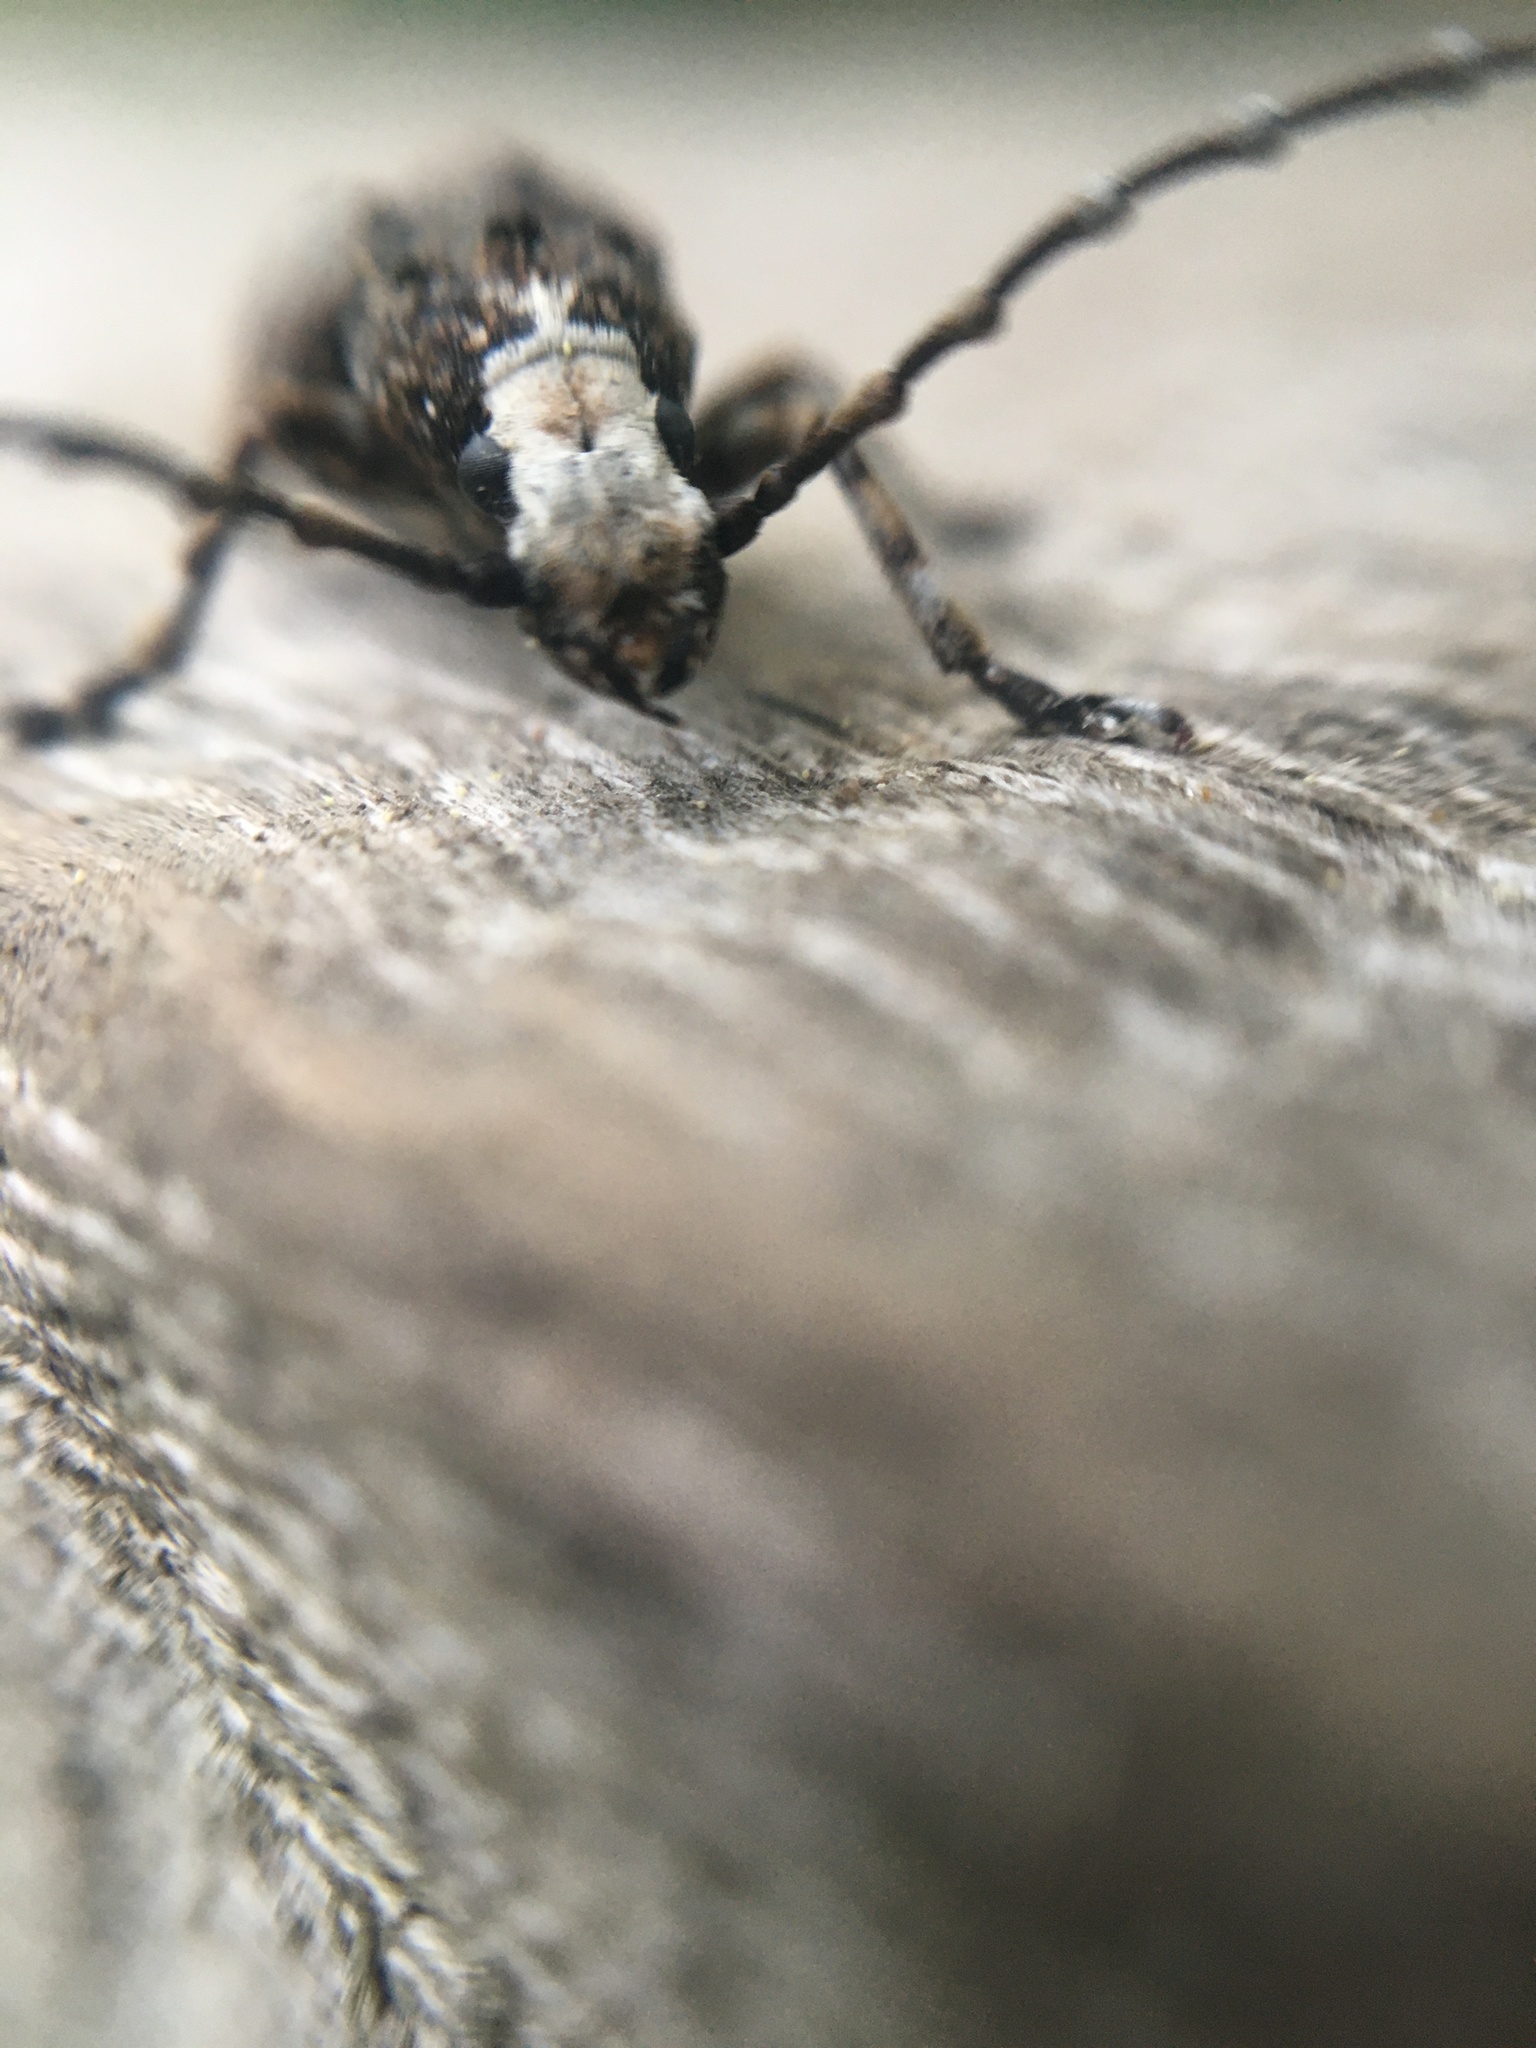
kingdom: Animalia
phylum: Arthropoda
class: Insecta
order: Coleoptera
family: Anthribidae
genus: Platystomos
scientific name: Platystomos albinus
